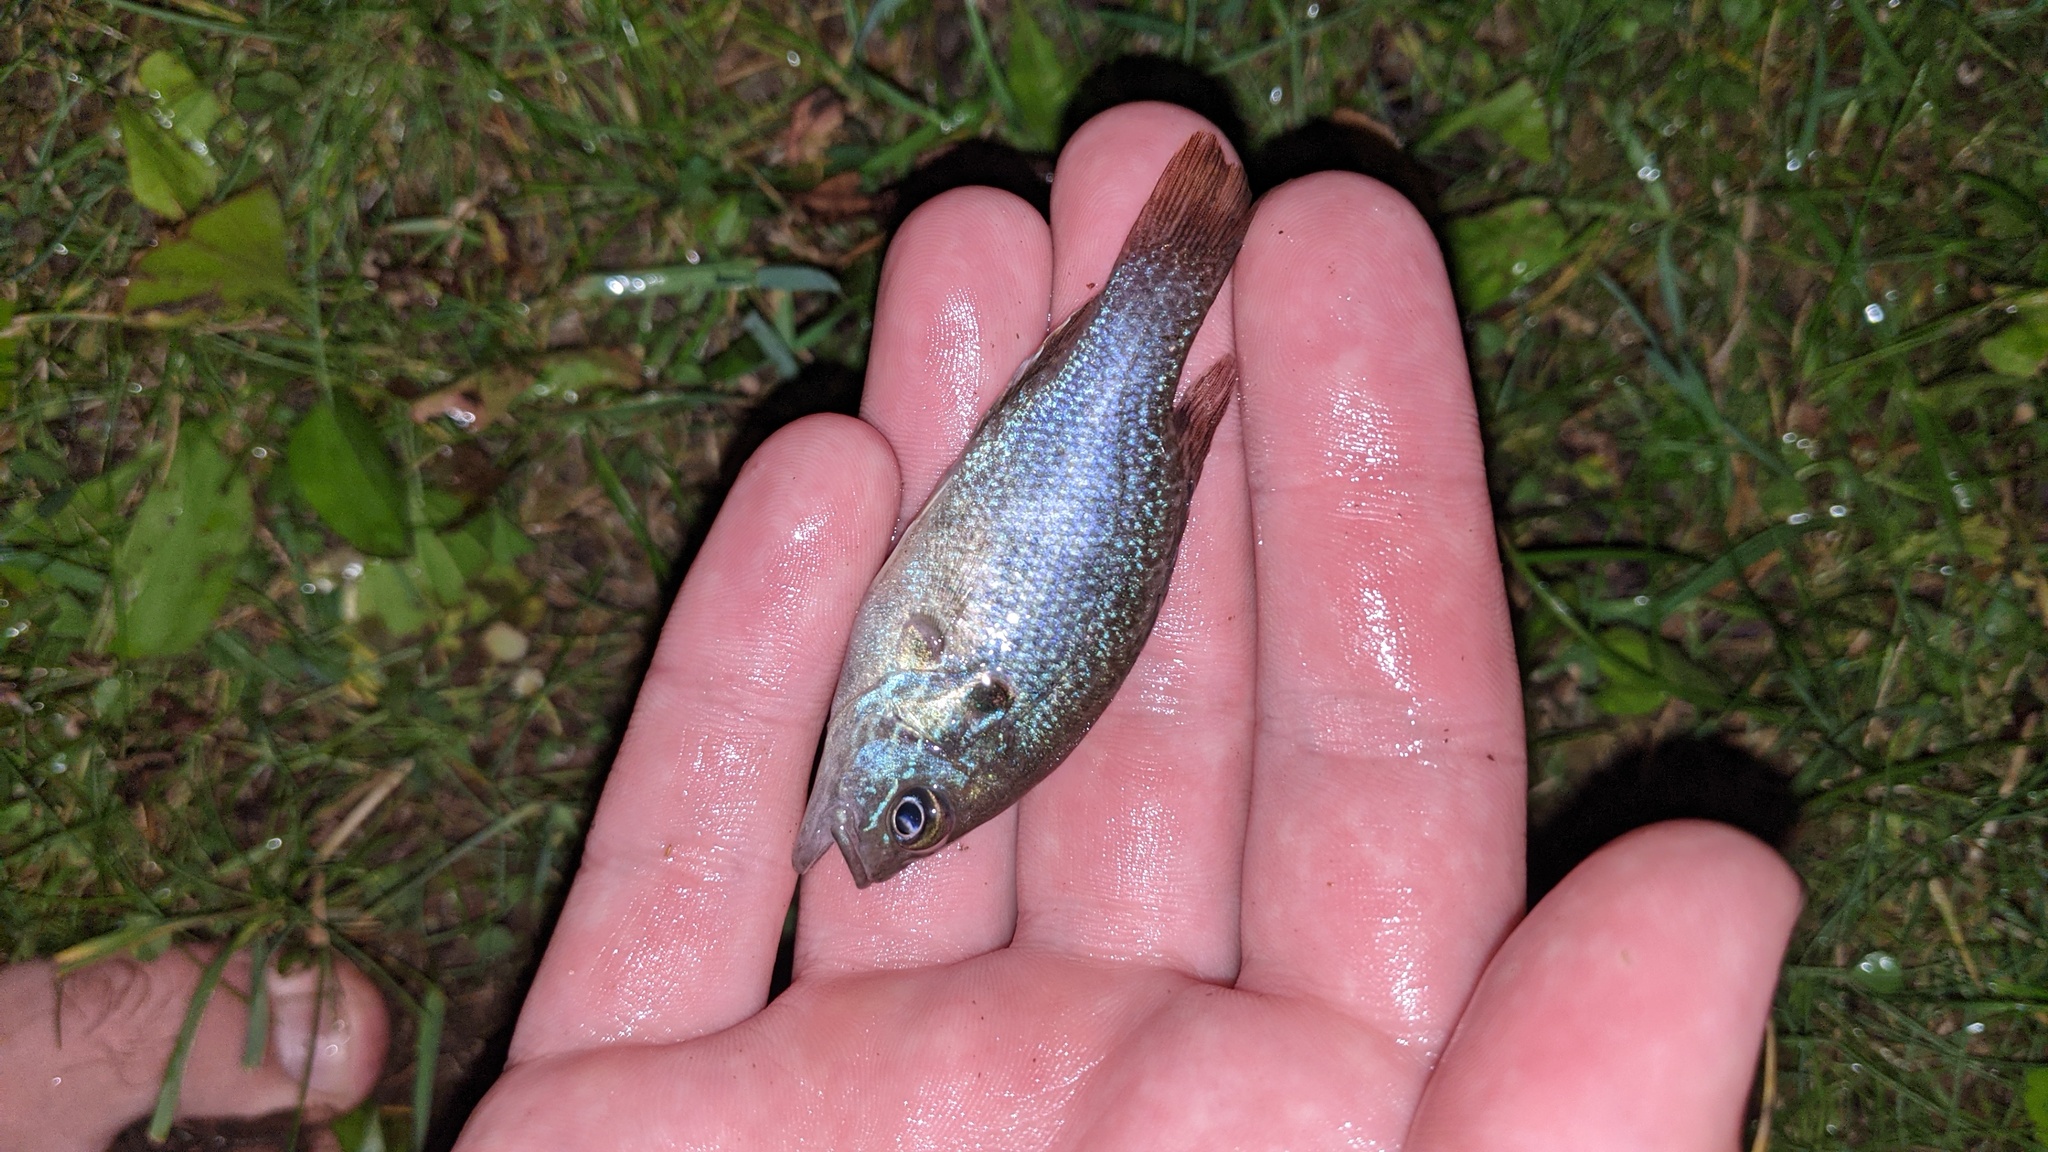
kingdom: Animalia
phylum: Chordata
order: Perciformes
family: Centrarchidae
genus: Lepomis
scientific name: Lepomis cyanellus
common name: Green sunfish
